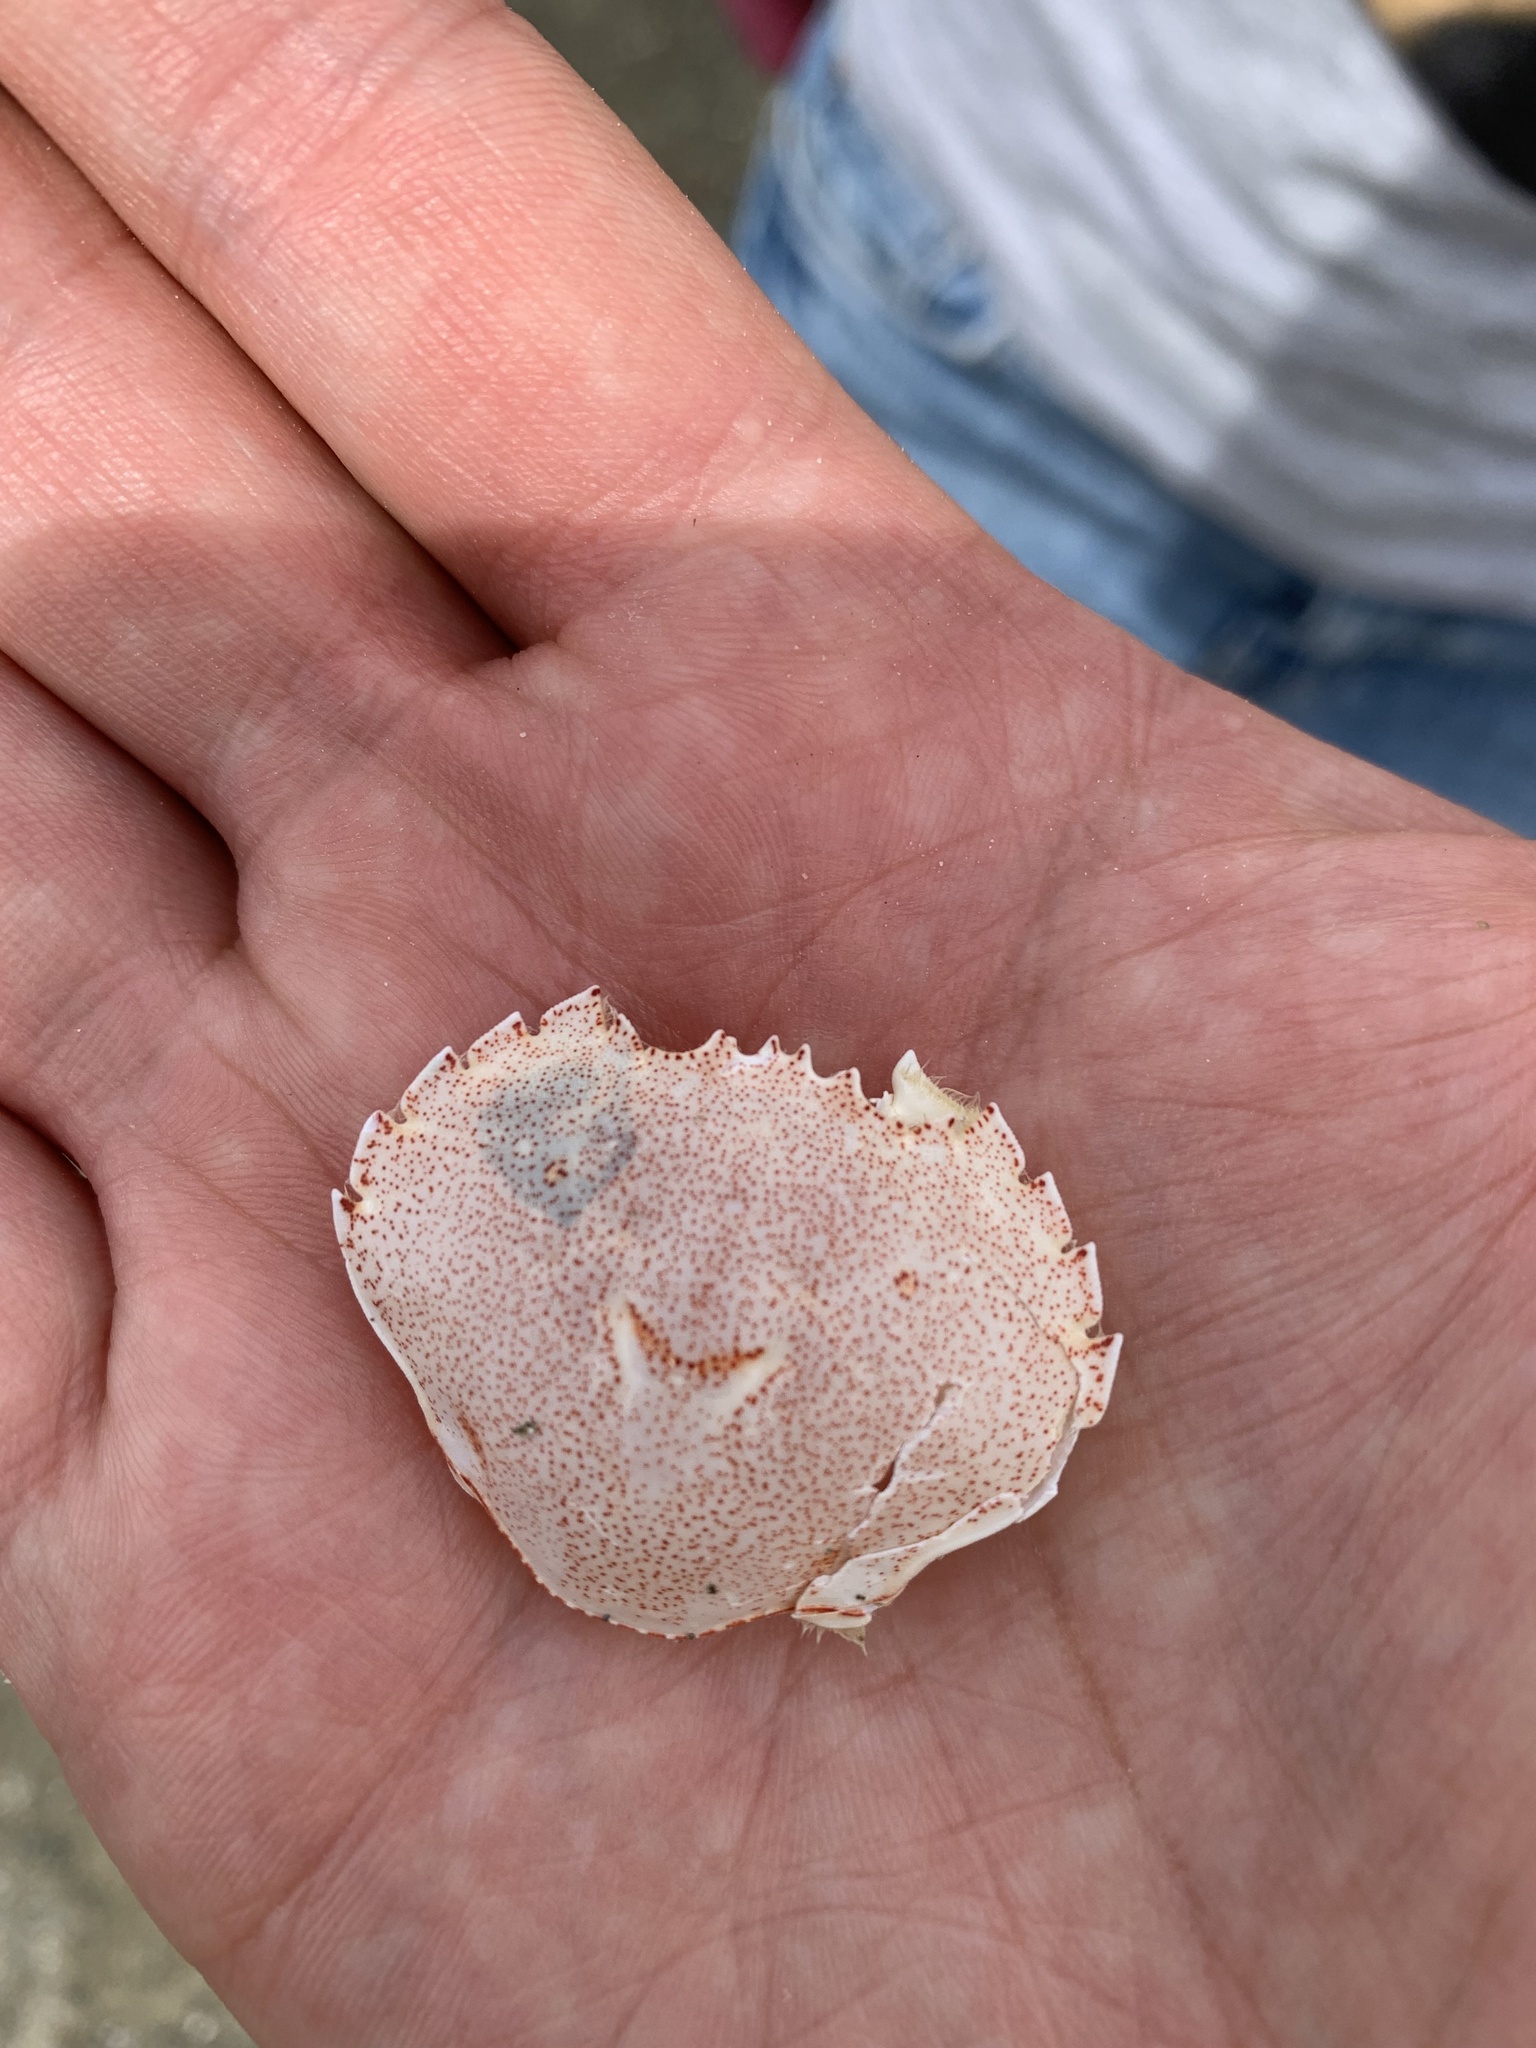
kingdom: Animalia
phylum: Arthropoda
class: Malacostraca
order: Decapoda
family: Ovalipidae
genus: Ovalipes
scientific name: Ovalipes catharus
